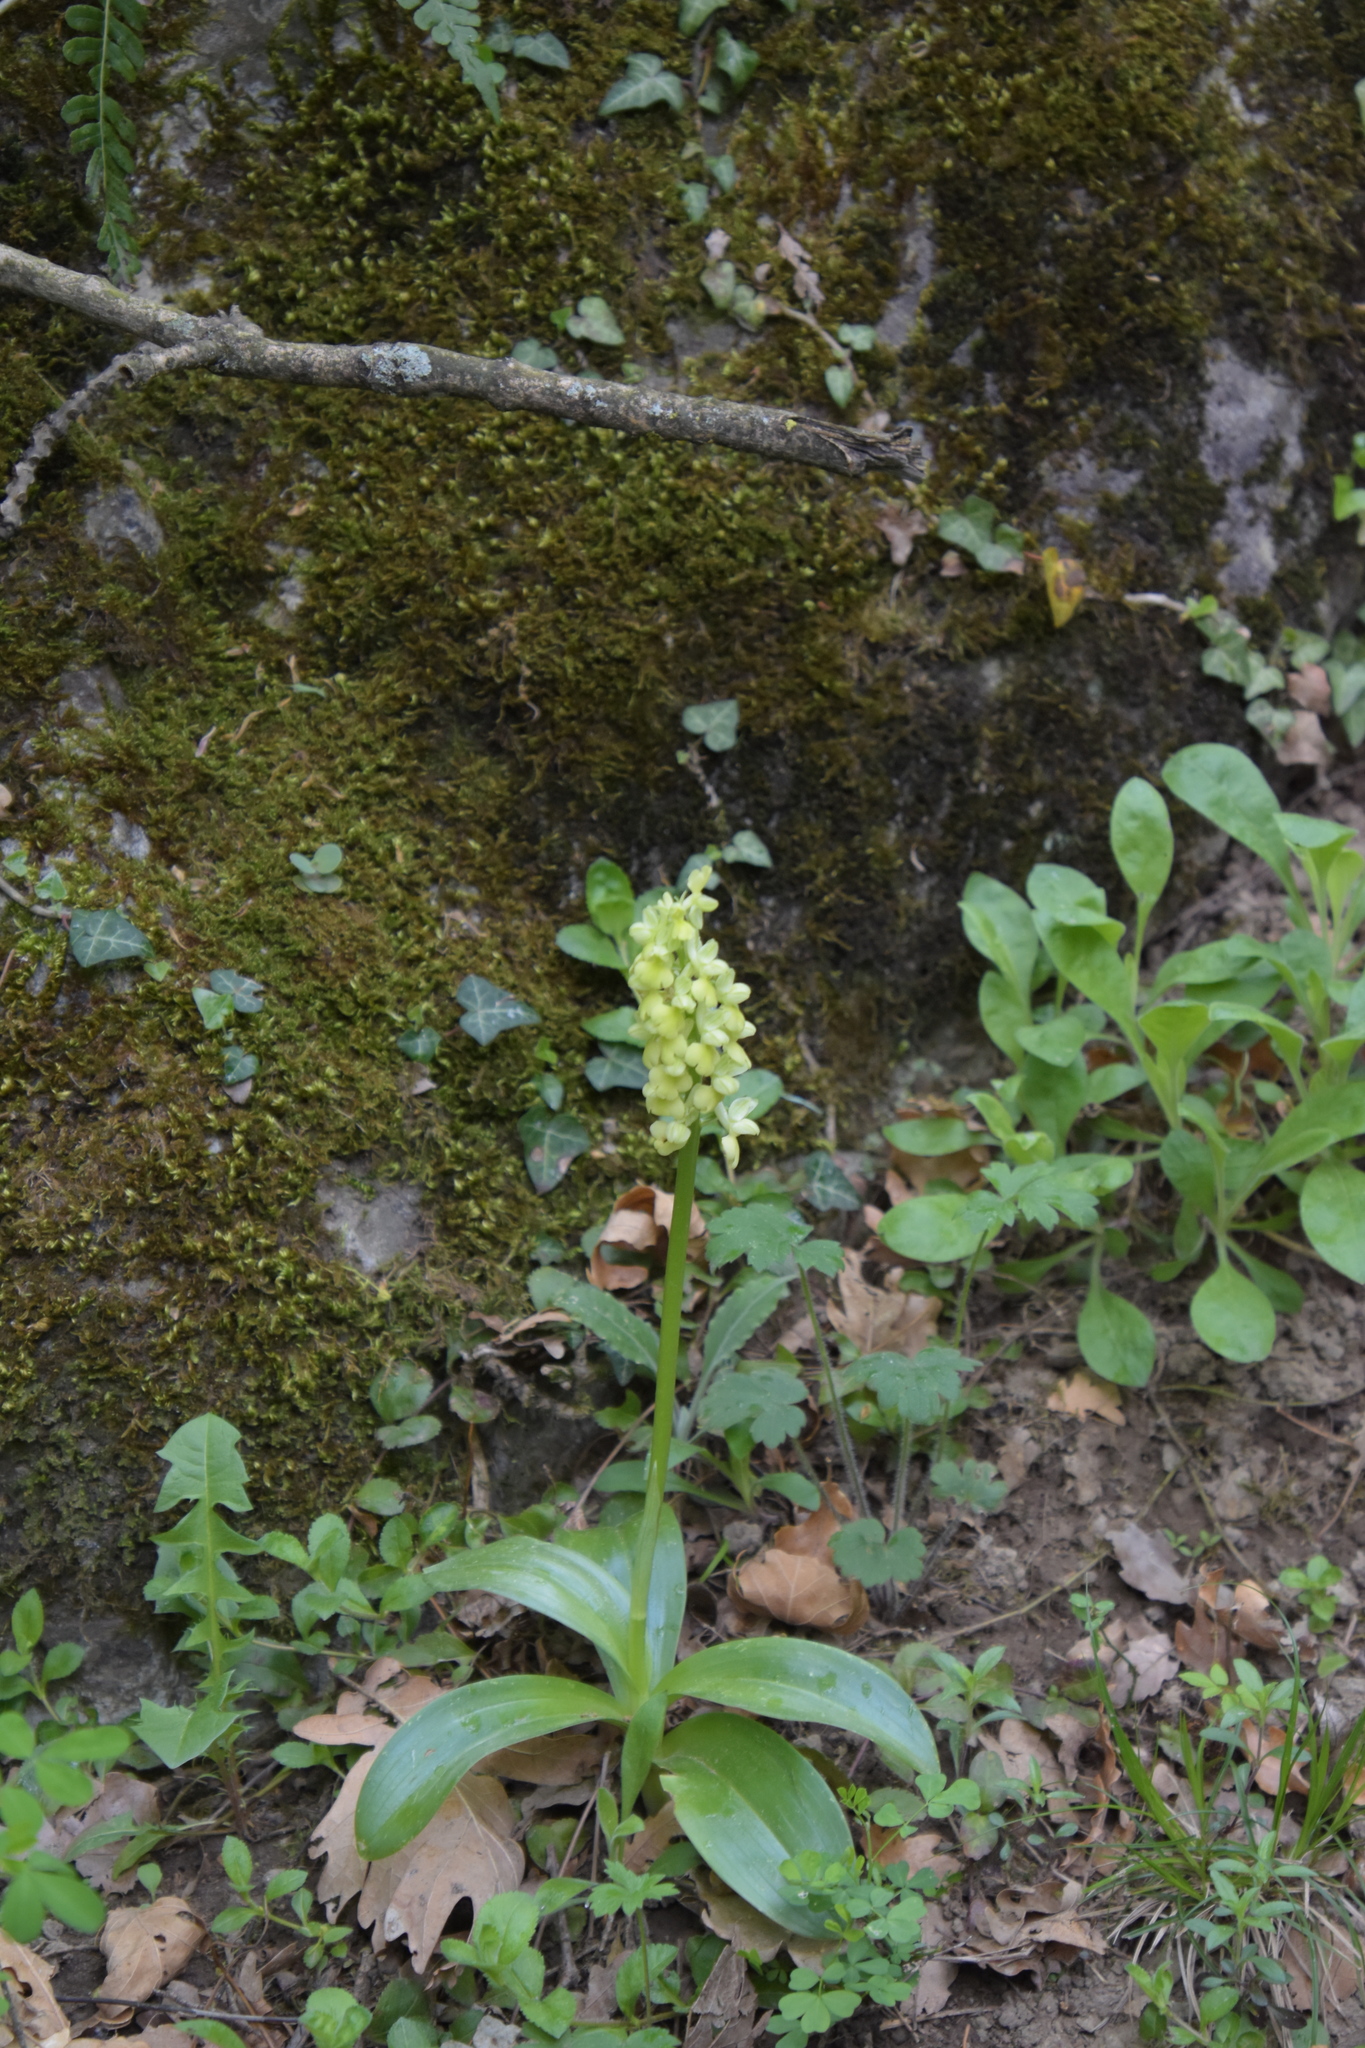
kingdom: Plantae
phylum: Tracheophyta
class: Liliopsida
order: Asparagales
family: Orchidaceae
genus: Orchis
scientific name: Orchis pallens
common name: Pale-flowered orchid
